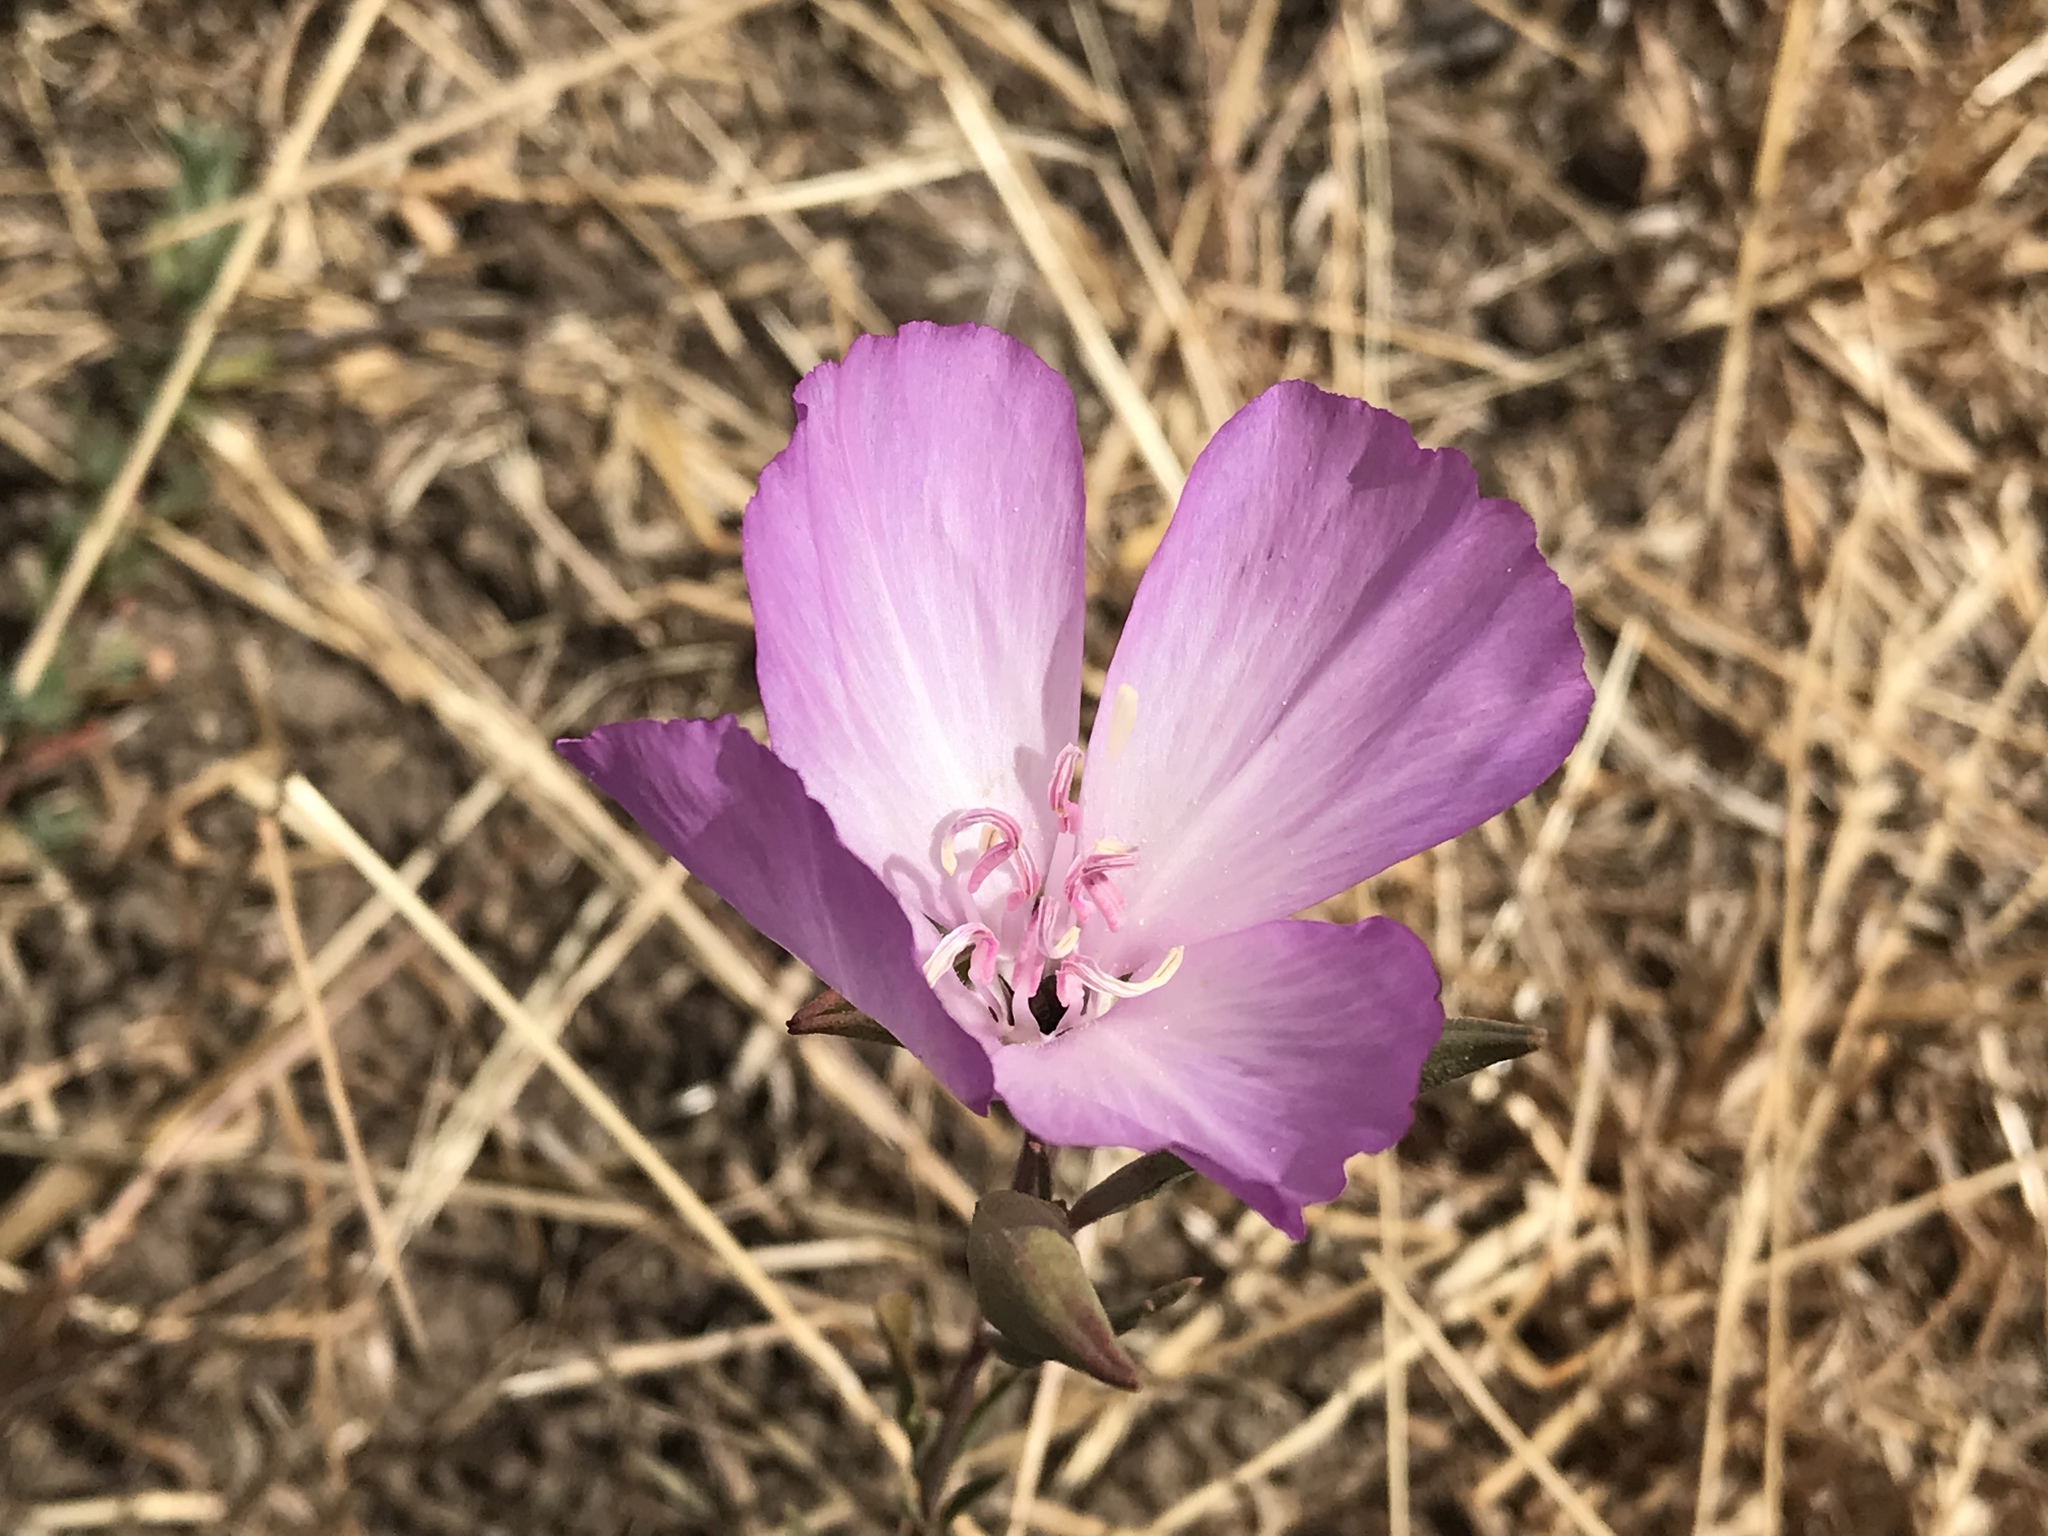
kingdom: Plantae
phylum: Tracheophyta
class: Magnoliopsida
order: Myrtales
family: Onagraceae
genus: Clarkia
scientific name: Clarkia amoena
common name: Godetia
